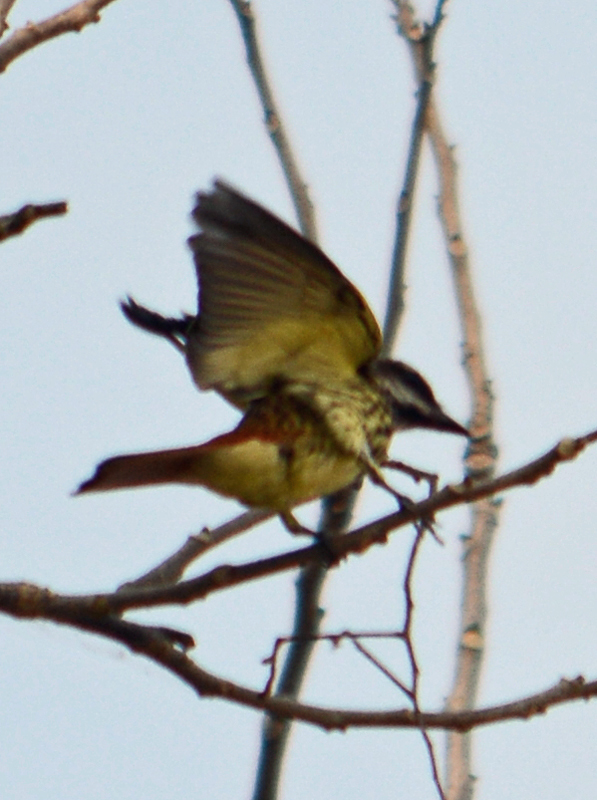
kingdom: Animalia
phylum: Chordata
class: Aves
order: Passeriformes
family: Tyrannidae
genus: Myiodynastes
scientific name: Myiodynastes luteiventris
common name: Sulphur-bellied flycatcher
